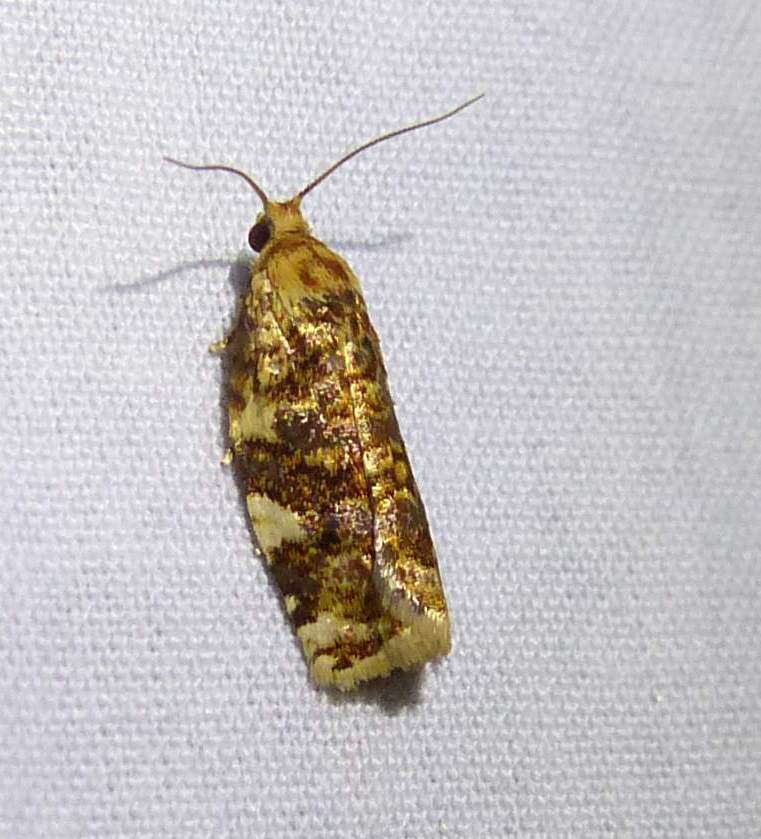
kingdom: Animalia
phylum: Arthropoda
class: Insecta
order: Lepidoptera
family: Tortricidae
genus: Archips
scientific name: Archips argyrospila
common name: Fruit-tree leafroller moth
